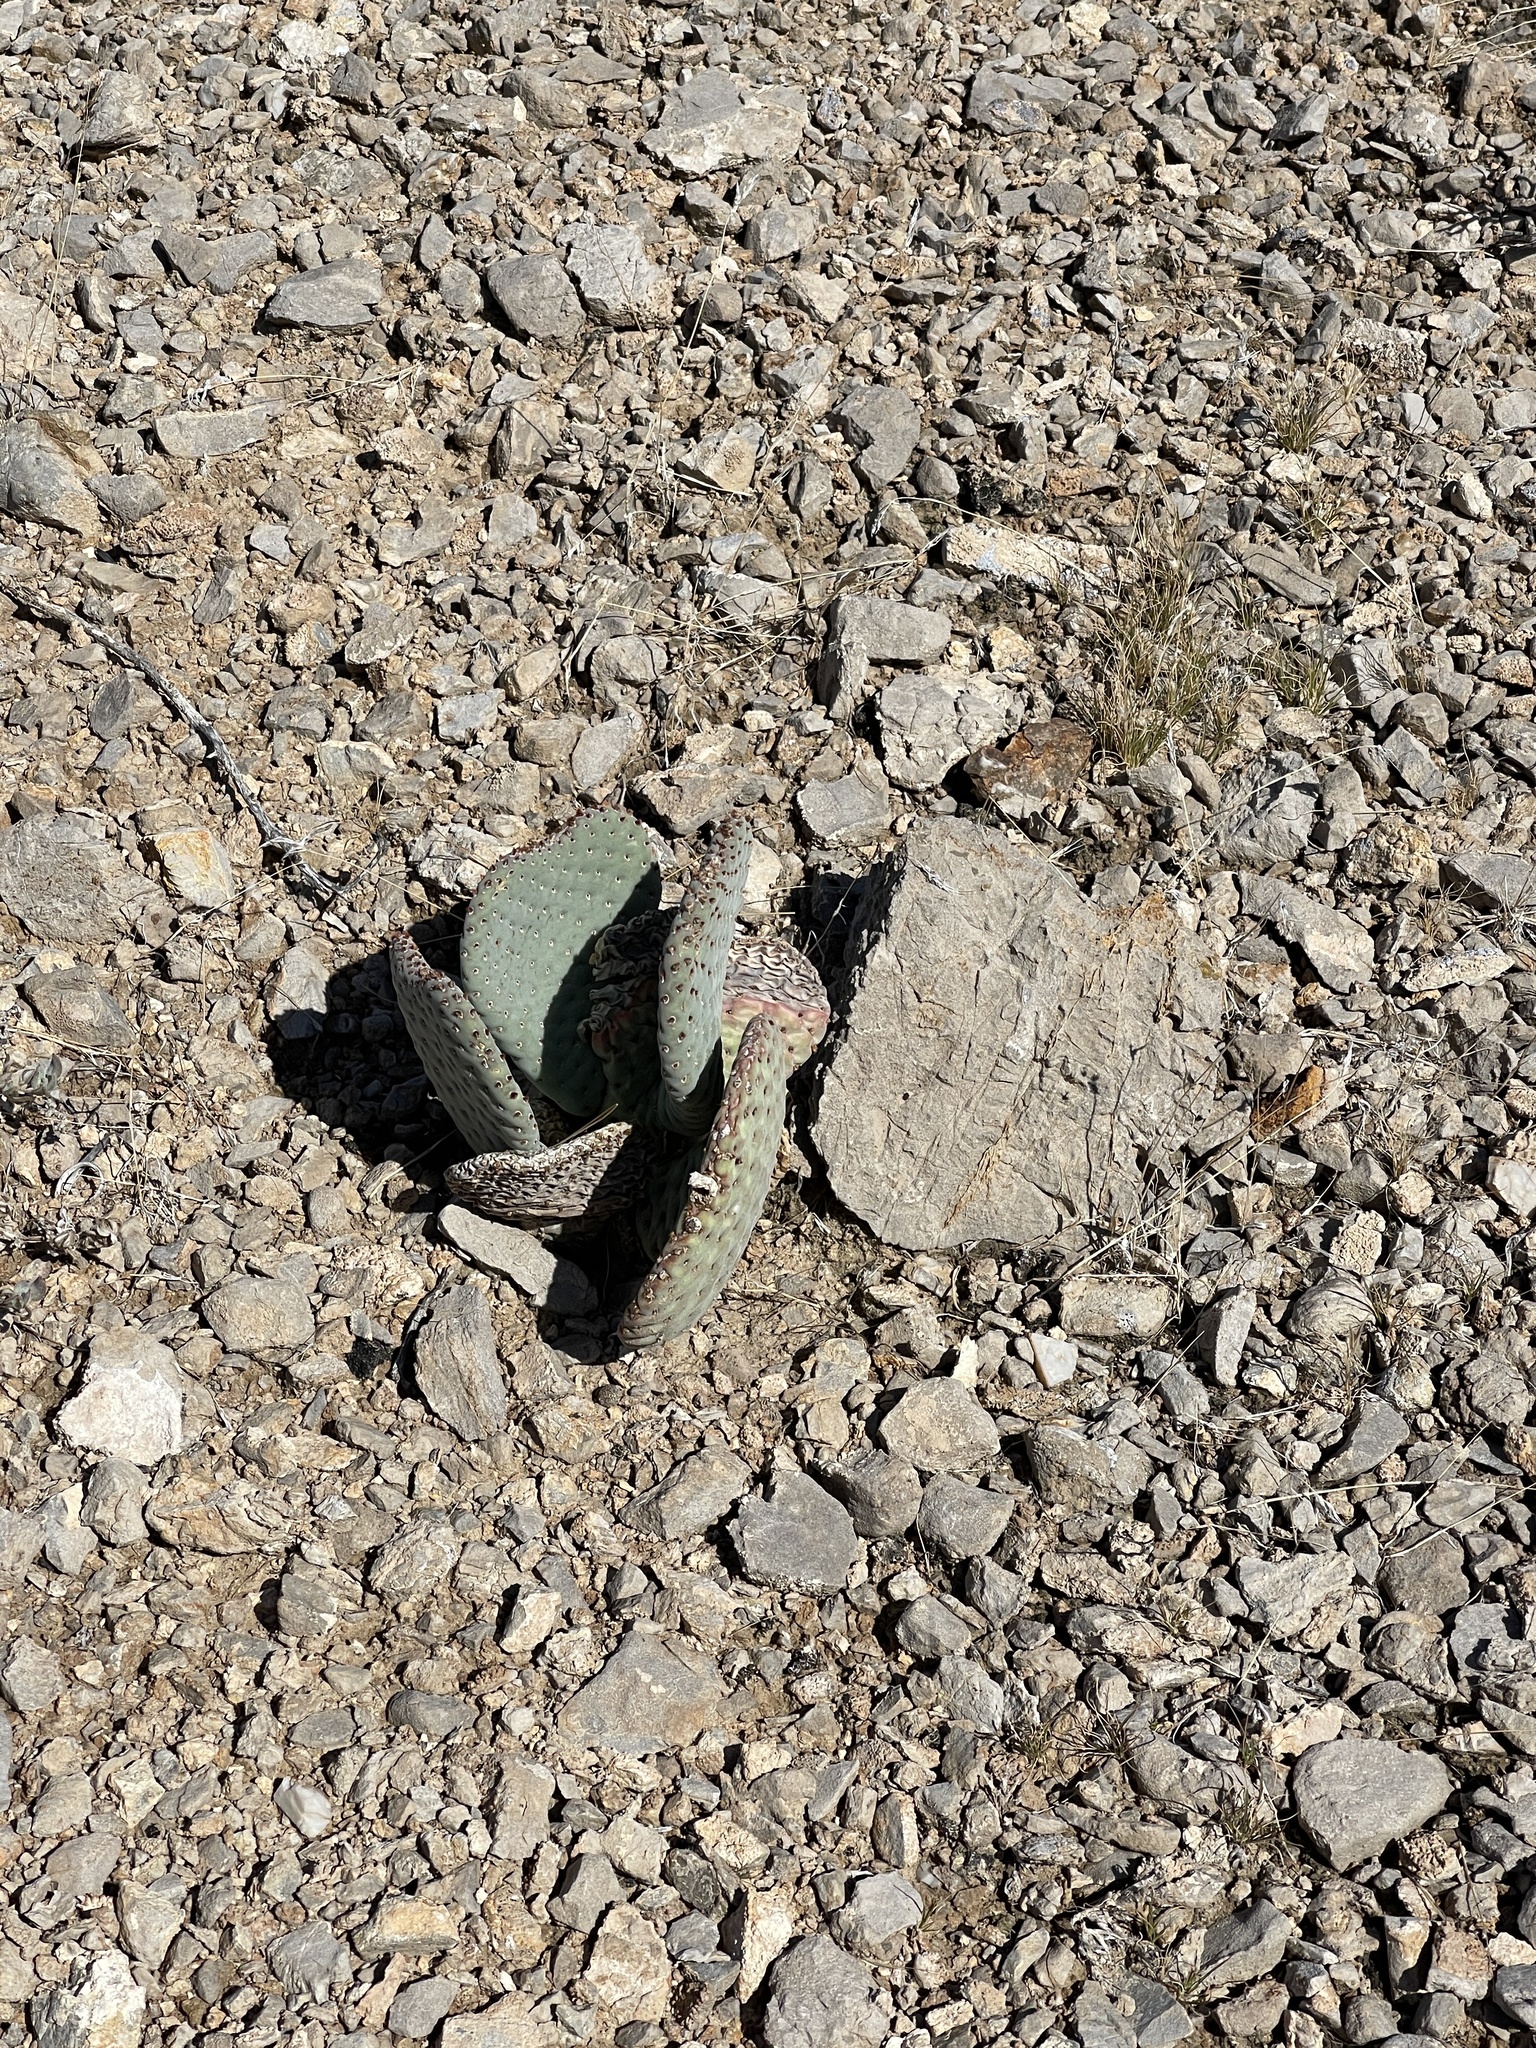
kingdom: Plantae
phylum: Tracheophyta
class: Magnoliopsida
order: Caryophyllales
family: Cactaceae
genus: Opuntia
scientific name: Opuntia basilaris
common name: Beavertail prickly-pear
